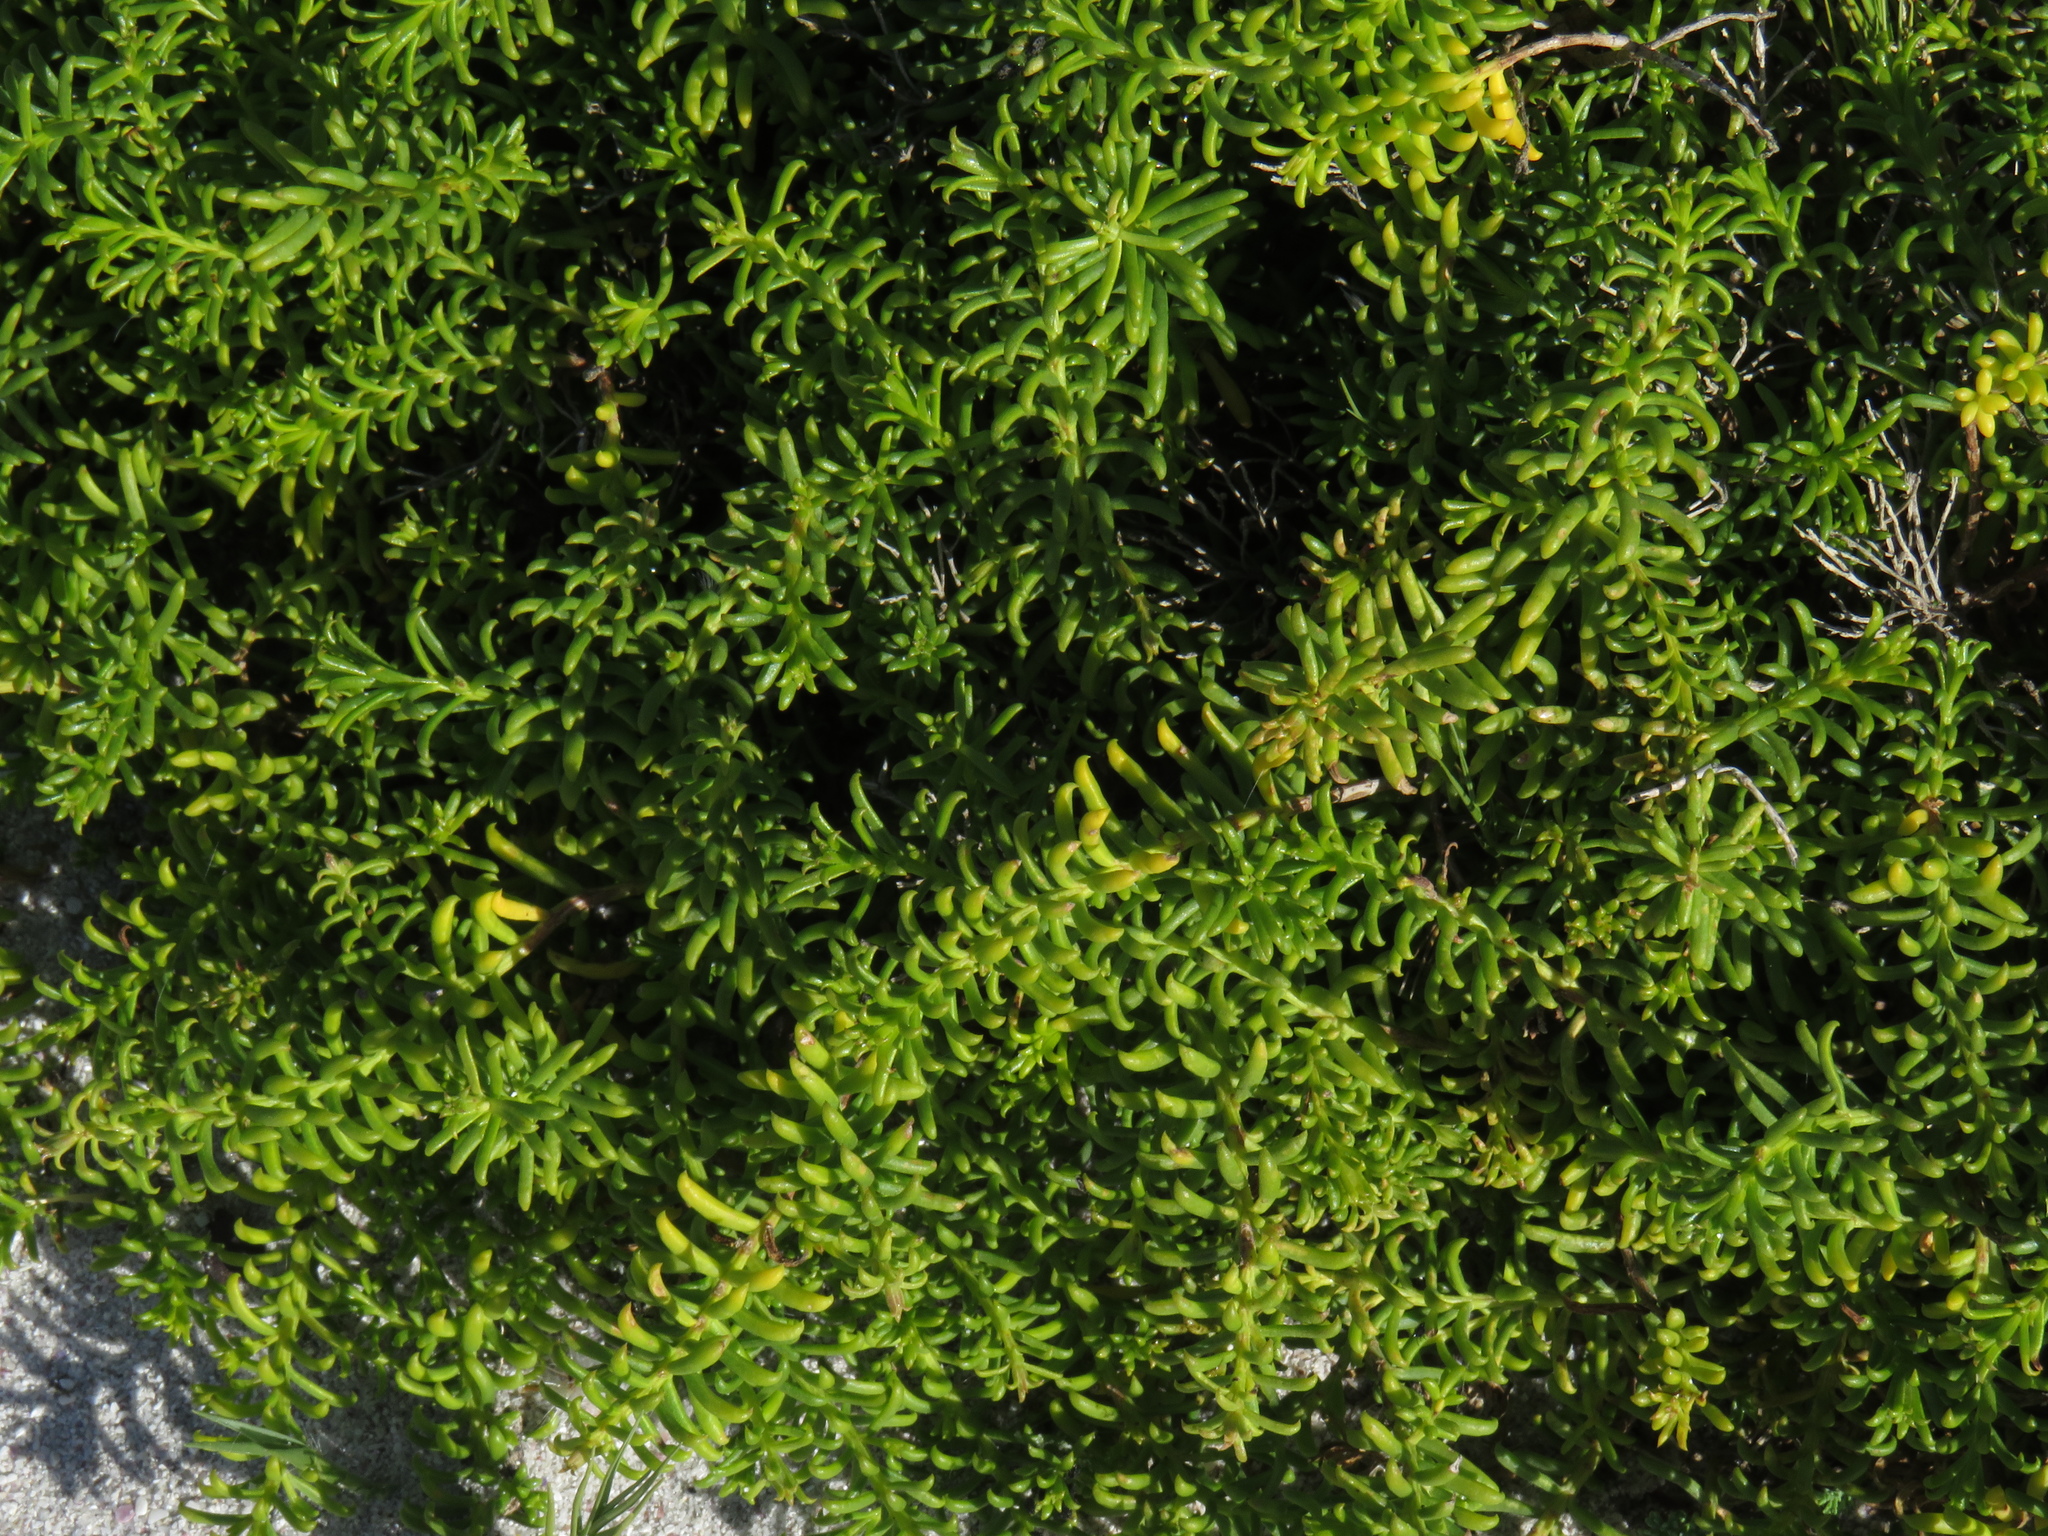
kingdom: Plantae
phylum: Tracheophyta
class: Magnoliopsida
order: Asterales
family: Asteraceae
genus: Pteronia
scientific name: Pteronia uncinata
